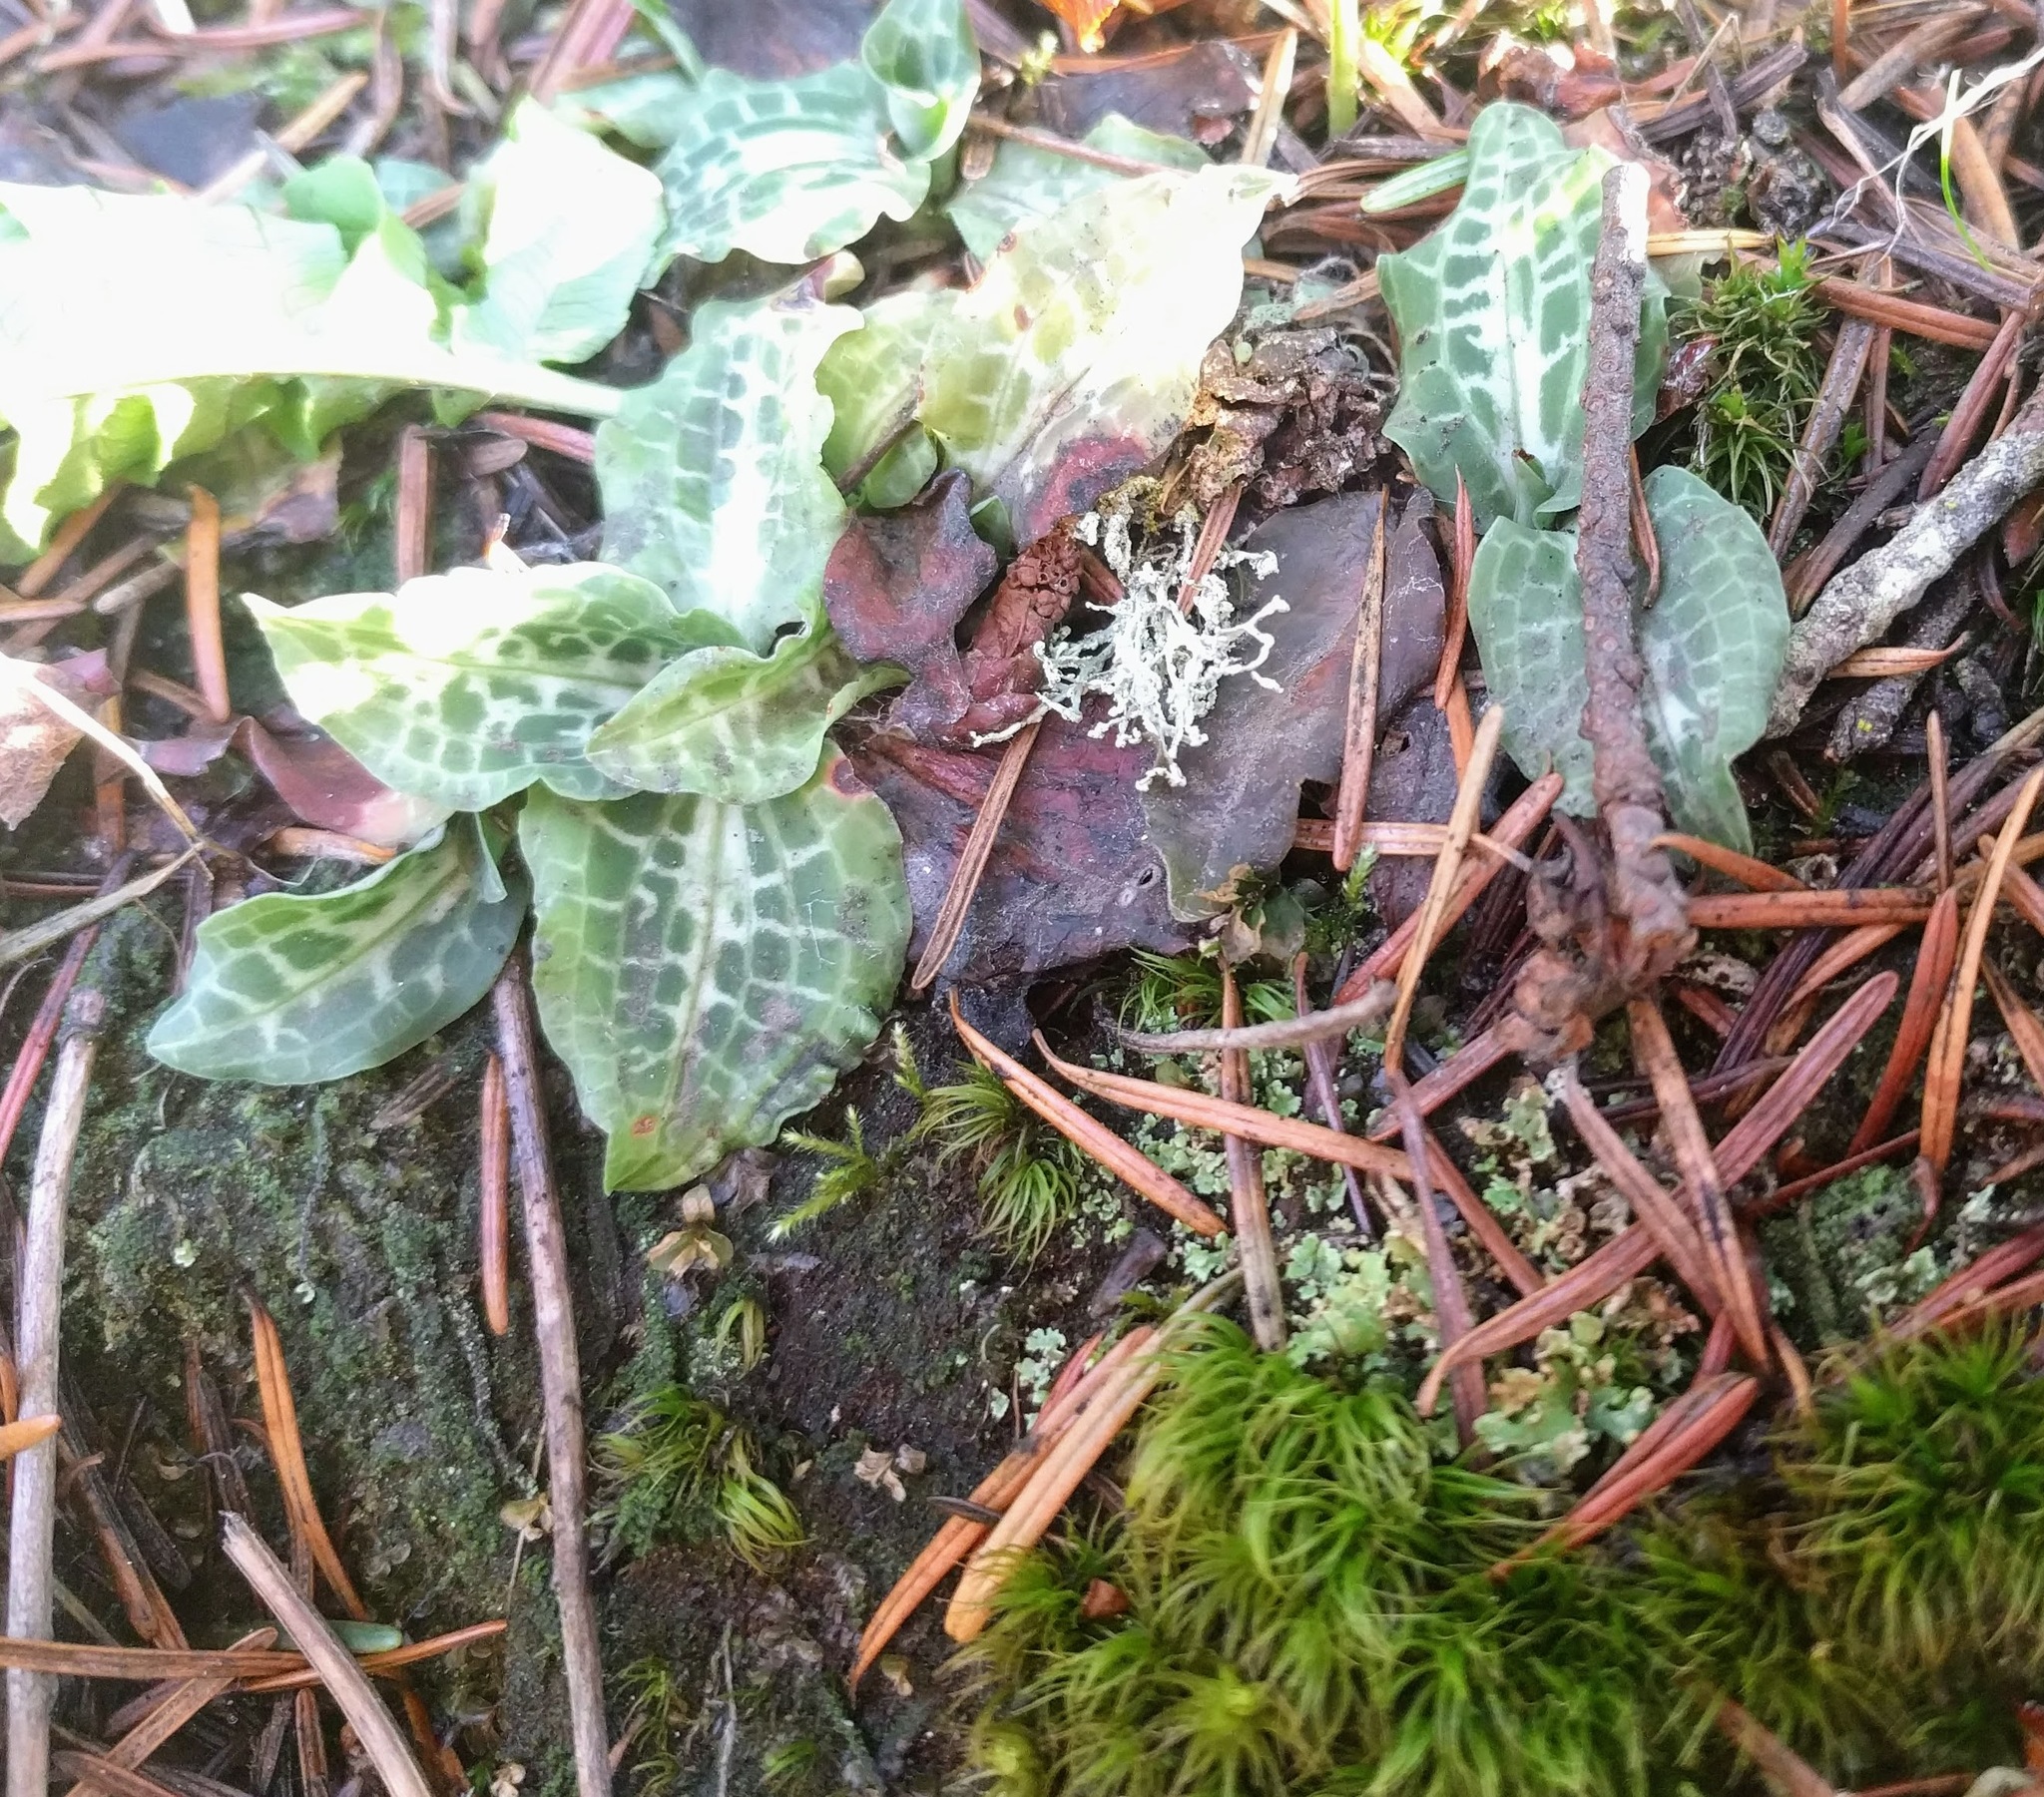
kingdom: Plantae
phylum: Tracheophyta
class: Liliopsida
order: Asparagales
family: Orchidaceae
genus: Goodyera
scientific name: Goodyera oblongifolia
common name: Giant rattlesnake-plantain
